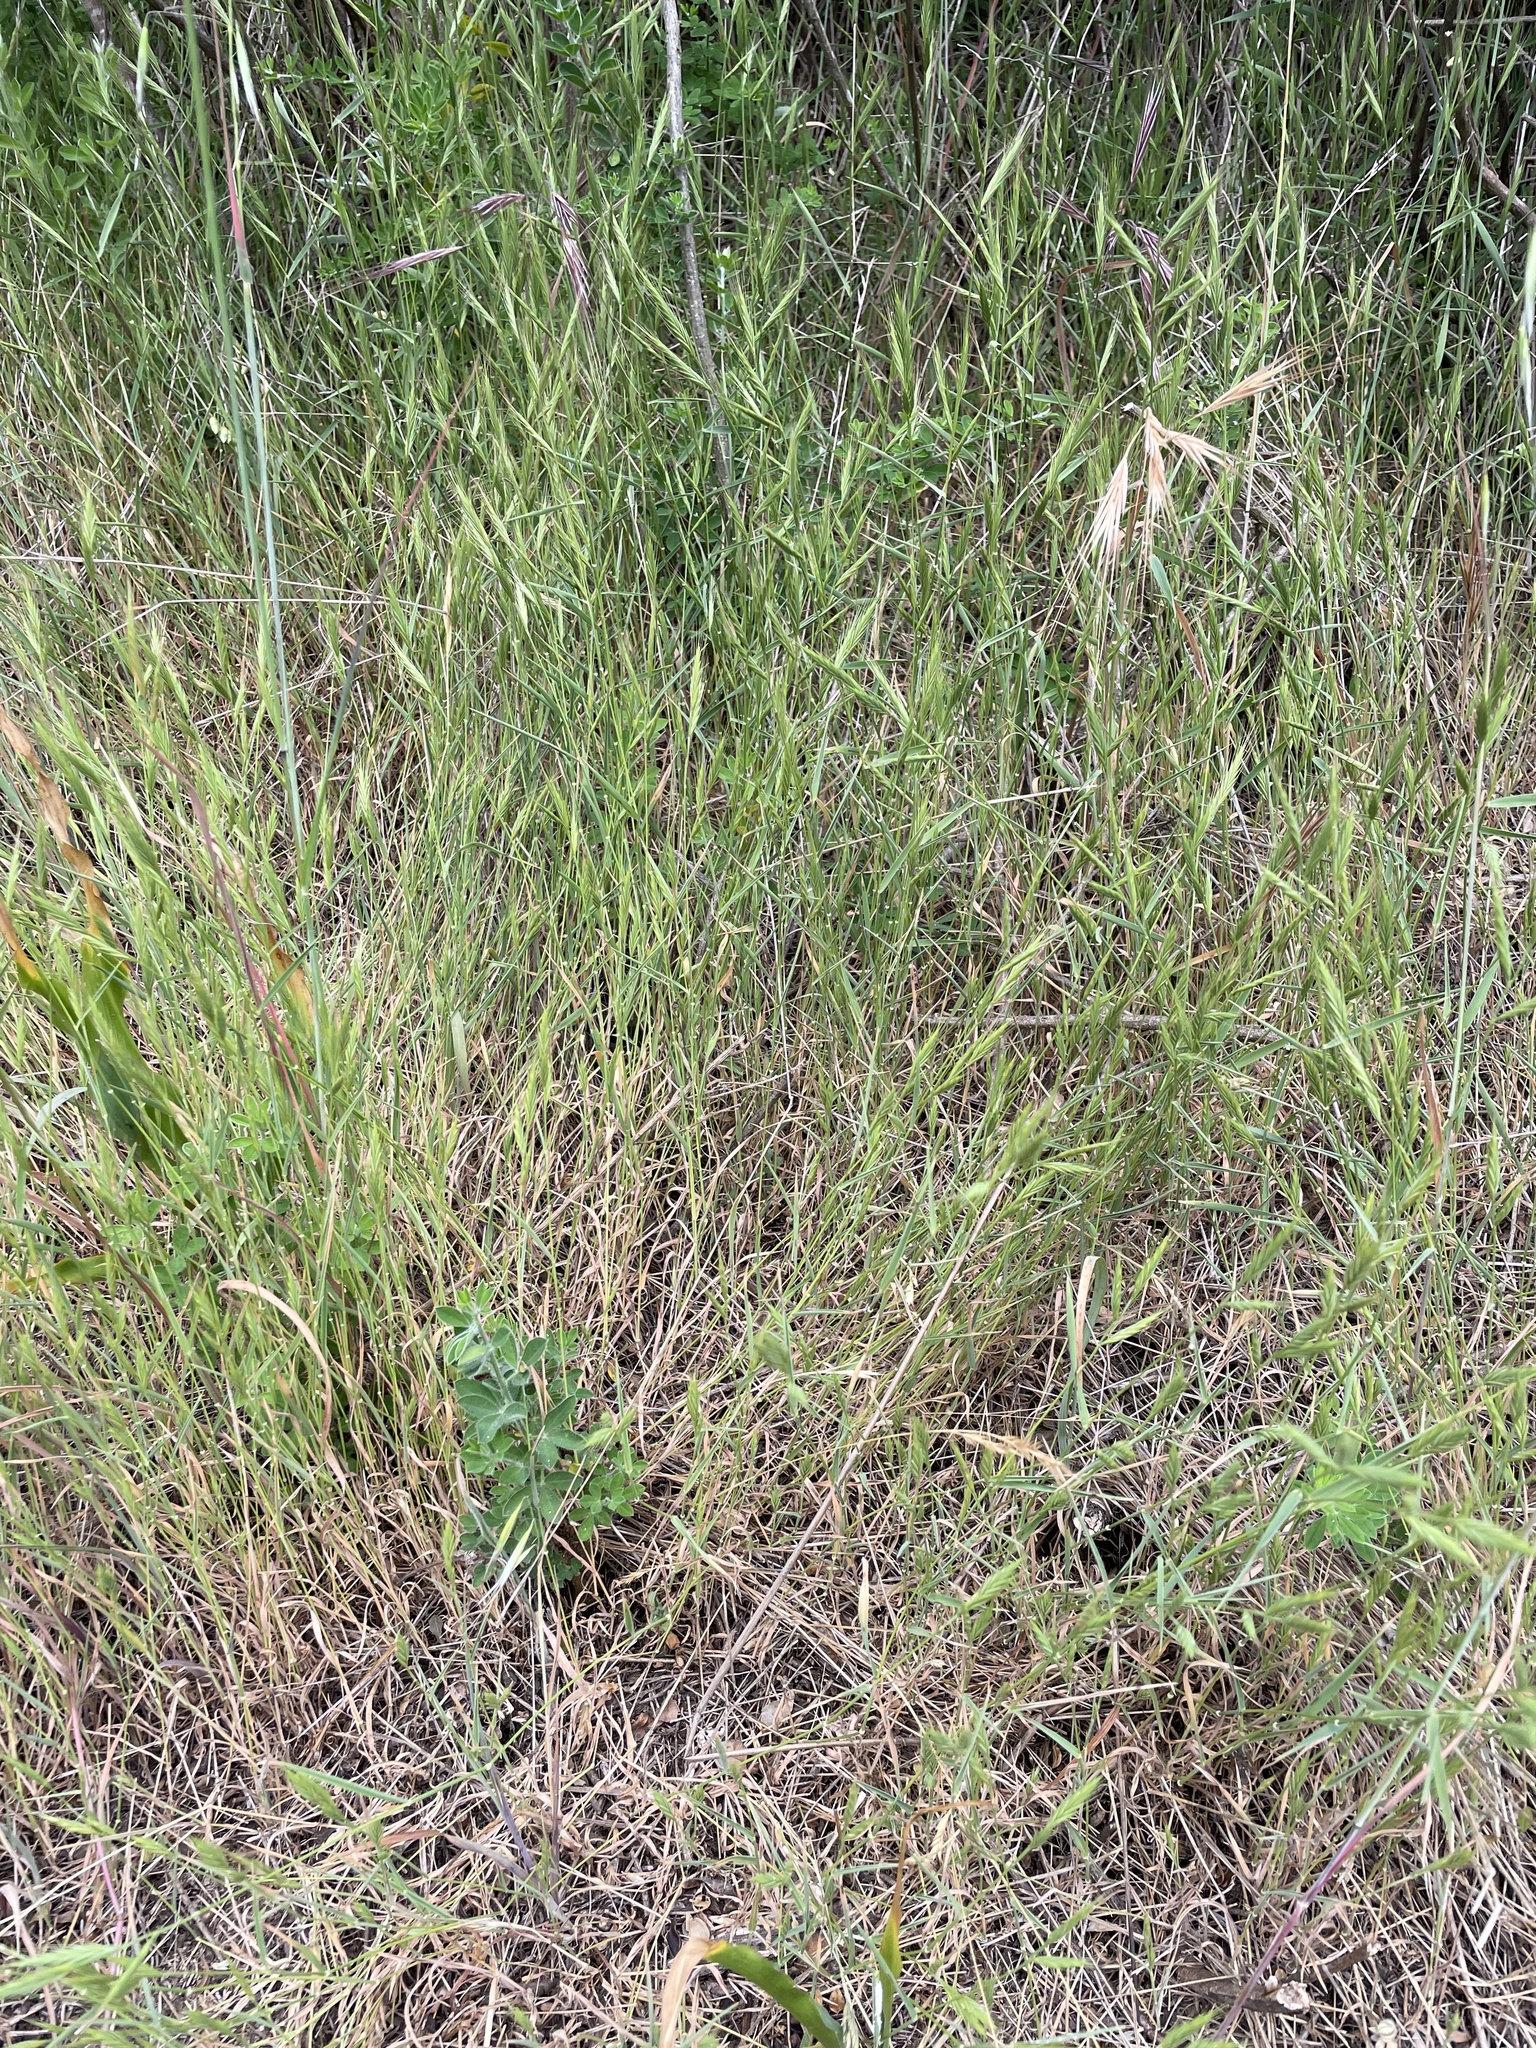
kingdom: Plantae
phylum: Tracheophyta
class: Liliopsida
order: Poales
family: Poaceae
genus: Brachypodium
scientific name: Brachypodium distachyon
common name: Stiff brome
